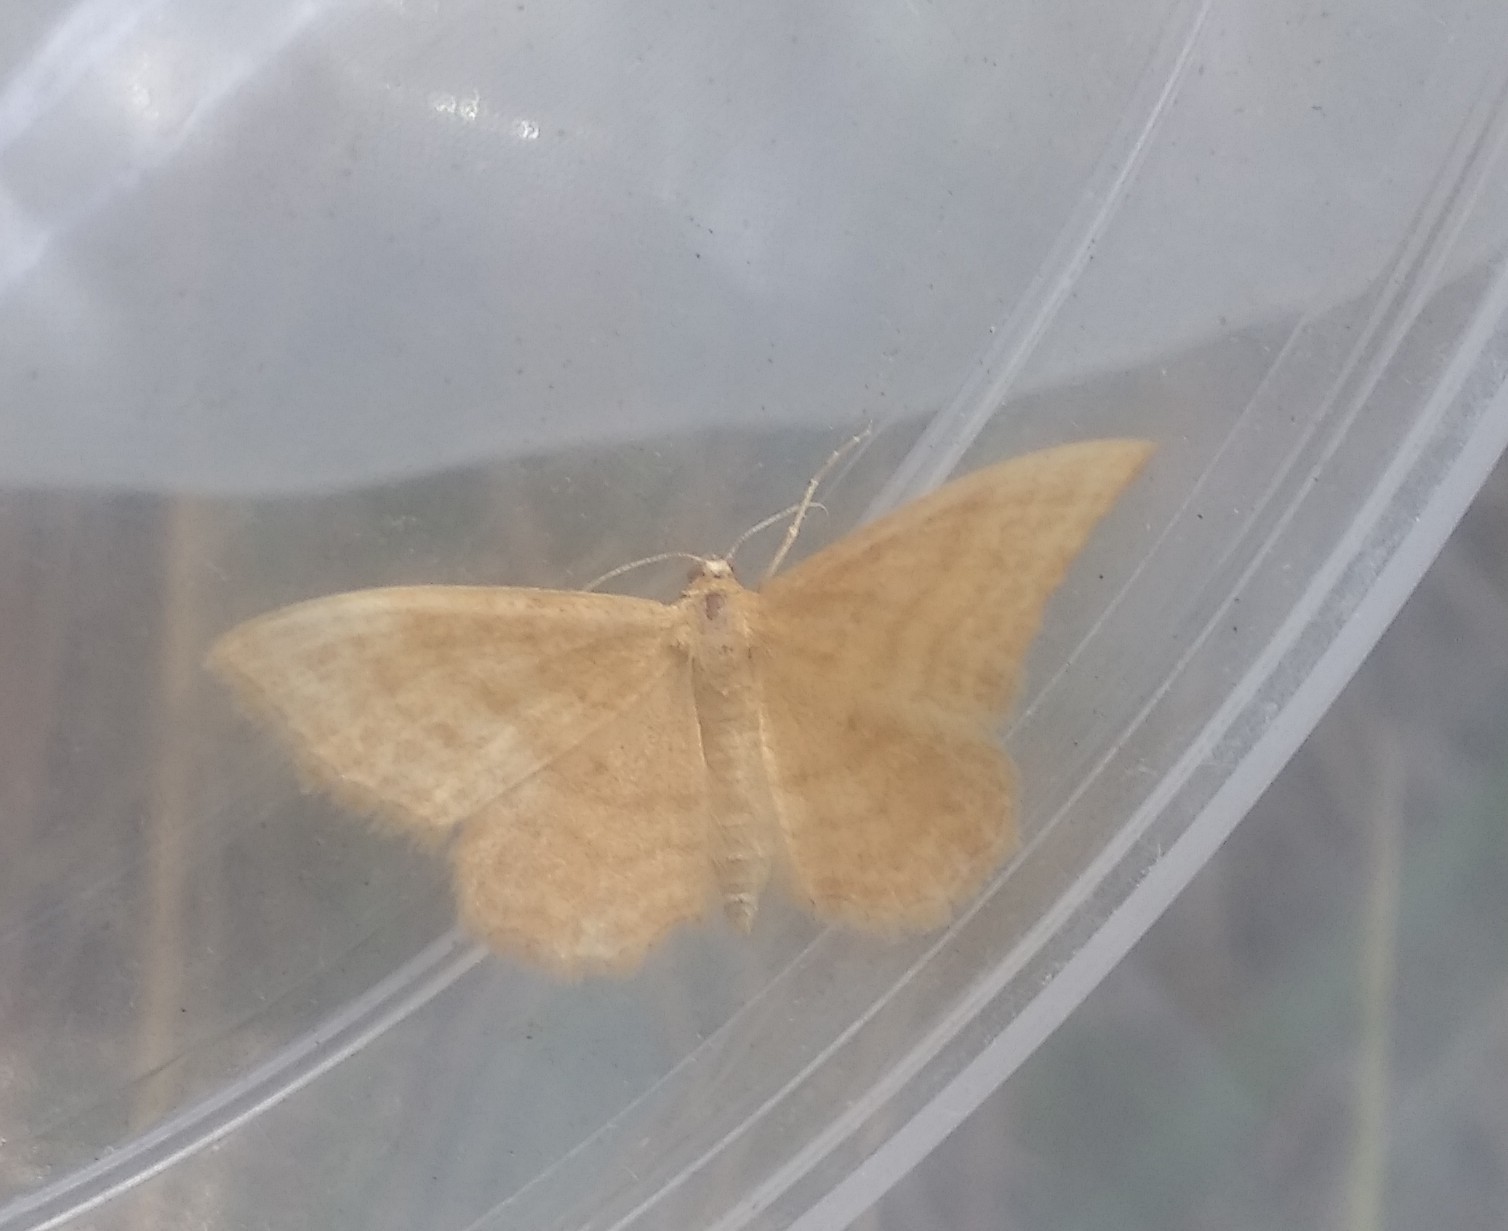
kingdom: Animalia
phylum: Arthropoda
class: Insecta
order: Lepidoptera
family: Geometridae
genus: Idaea
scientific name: Idaea ochrata
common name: Bright wave
